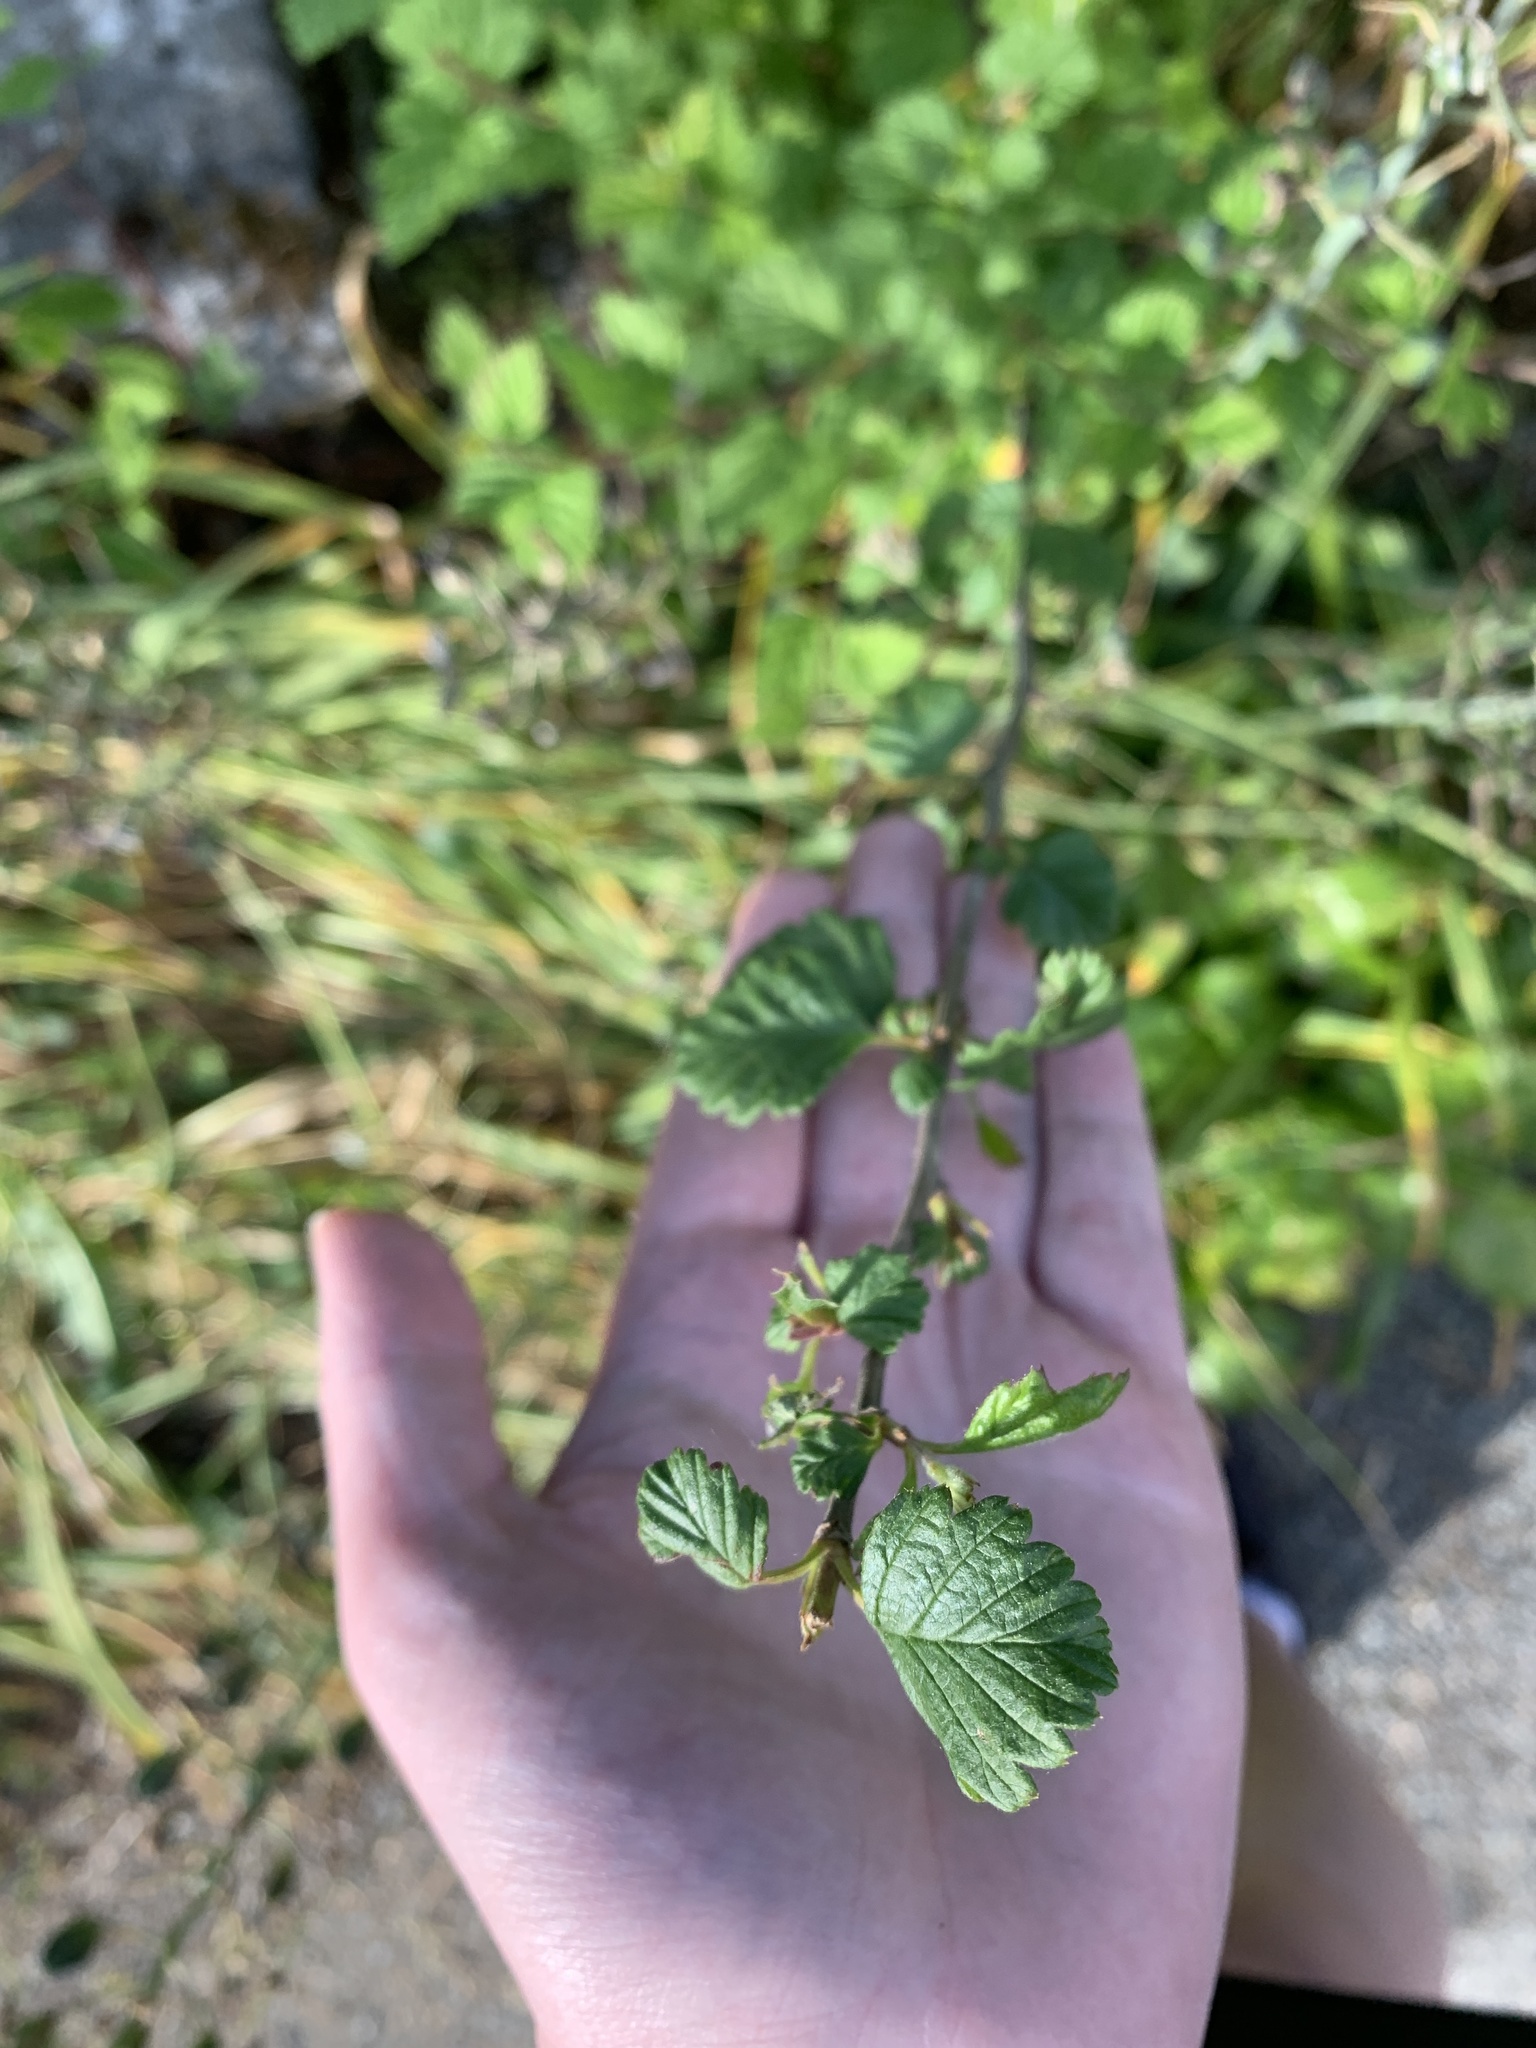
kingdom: Plantae
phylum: Tracheophyta
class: Magnoliopsida
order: Rosales
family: Rosaceae
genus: Holodiscus
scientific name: Holodiscus discolor
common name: Oceanspray
